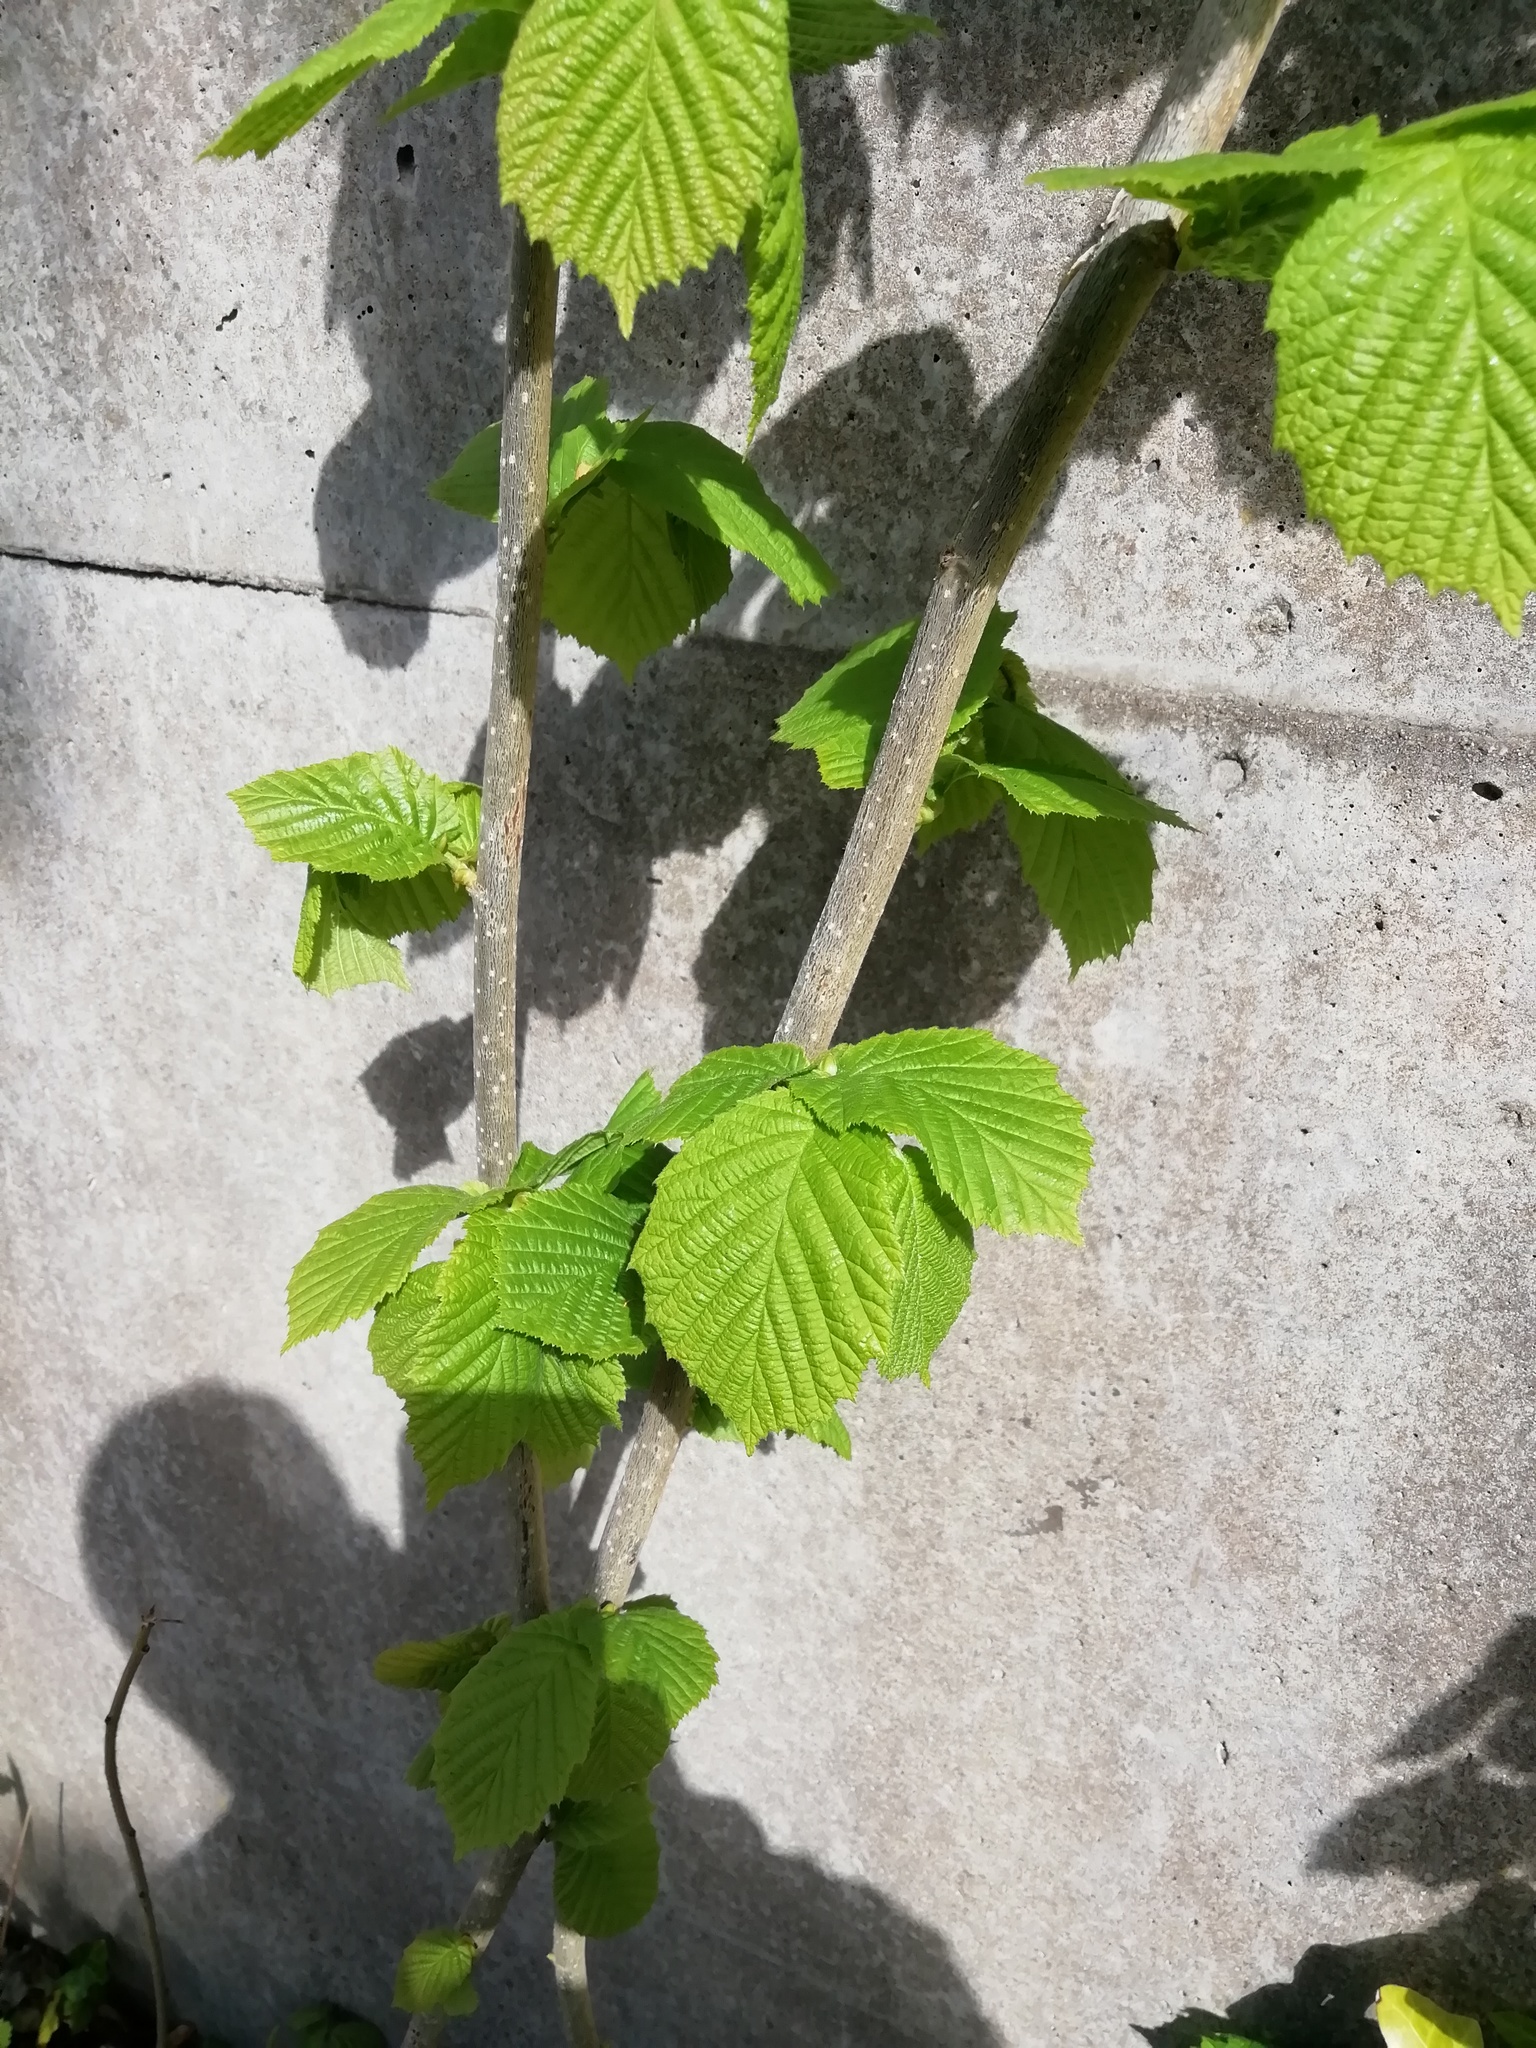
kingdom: Plantae
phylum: Tracheophyta
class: Magnoliopsida
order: Fagales
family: Betulaceae
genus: Corylus
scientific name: Corylus avellana
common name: European hazel
